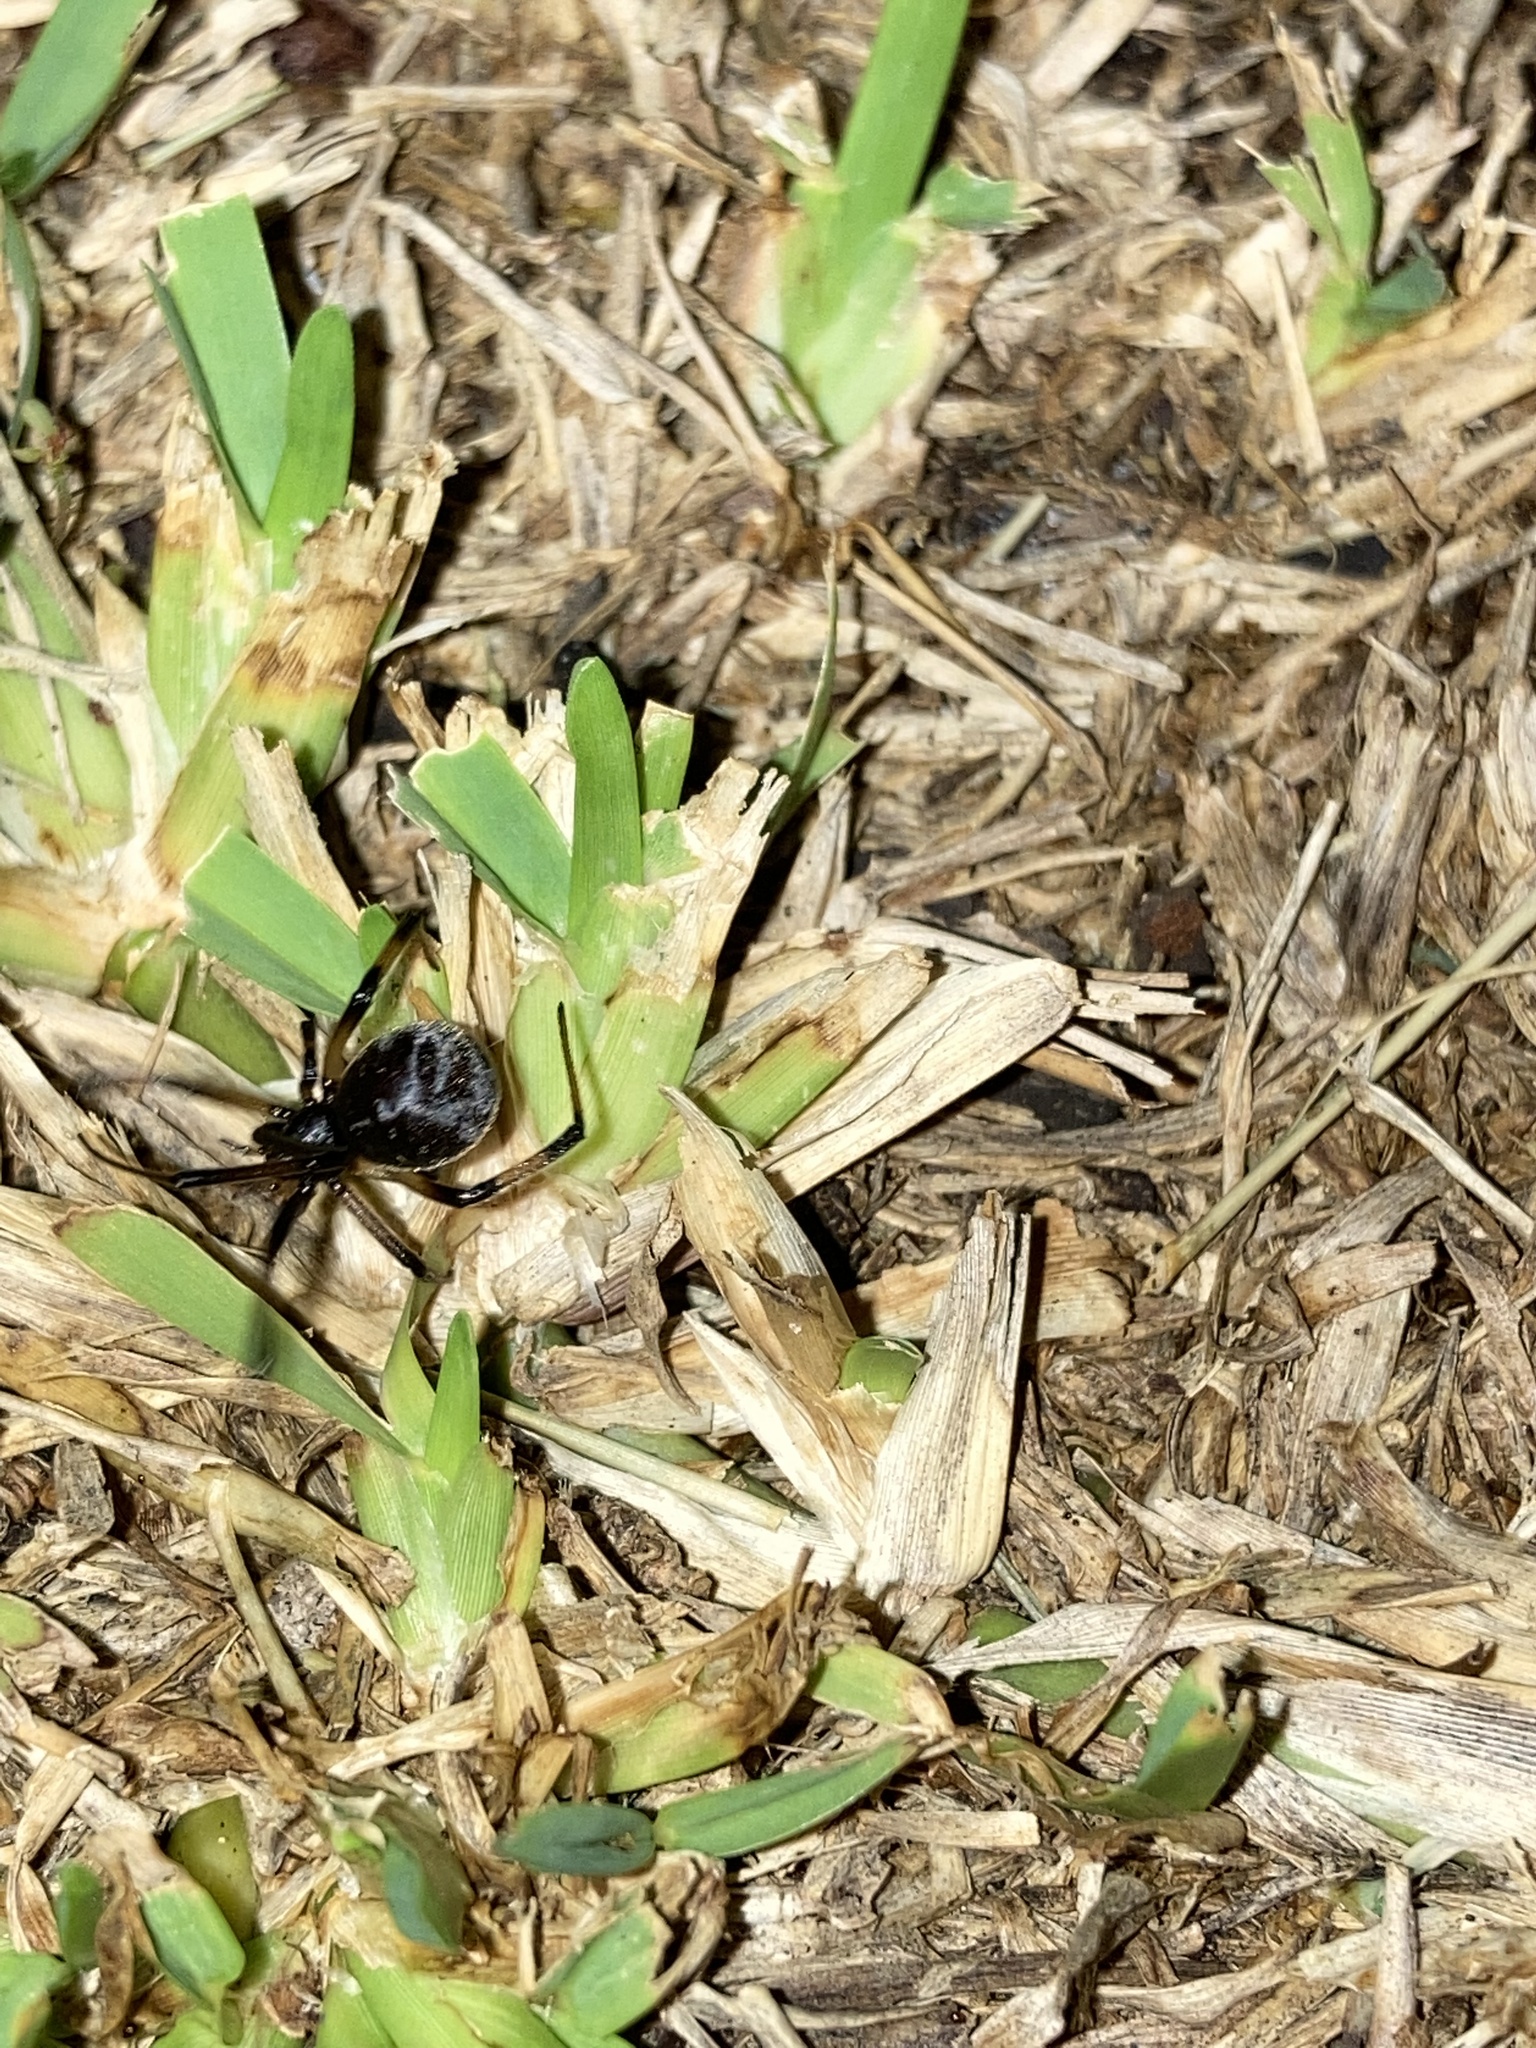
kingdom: Animalia
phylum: Arthropoda
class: Arachnida
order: Araneae
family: Theridiidae
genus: Latrodectus
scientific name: Latrodectus geometricus
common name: Brown widow spider
